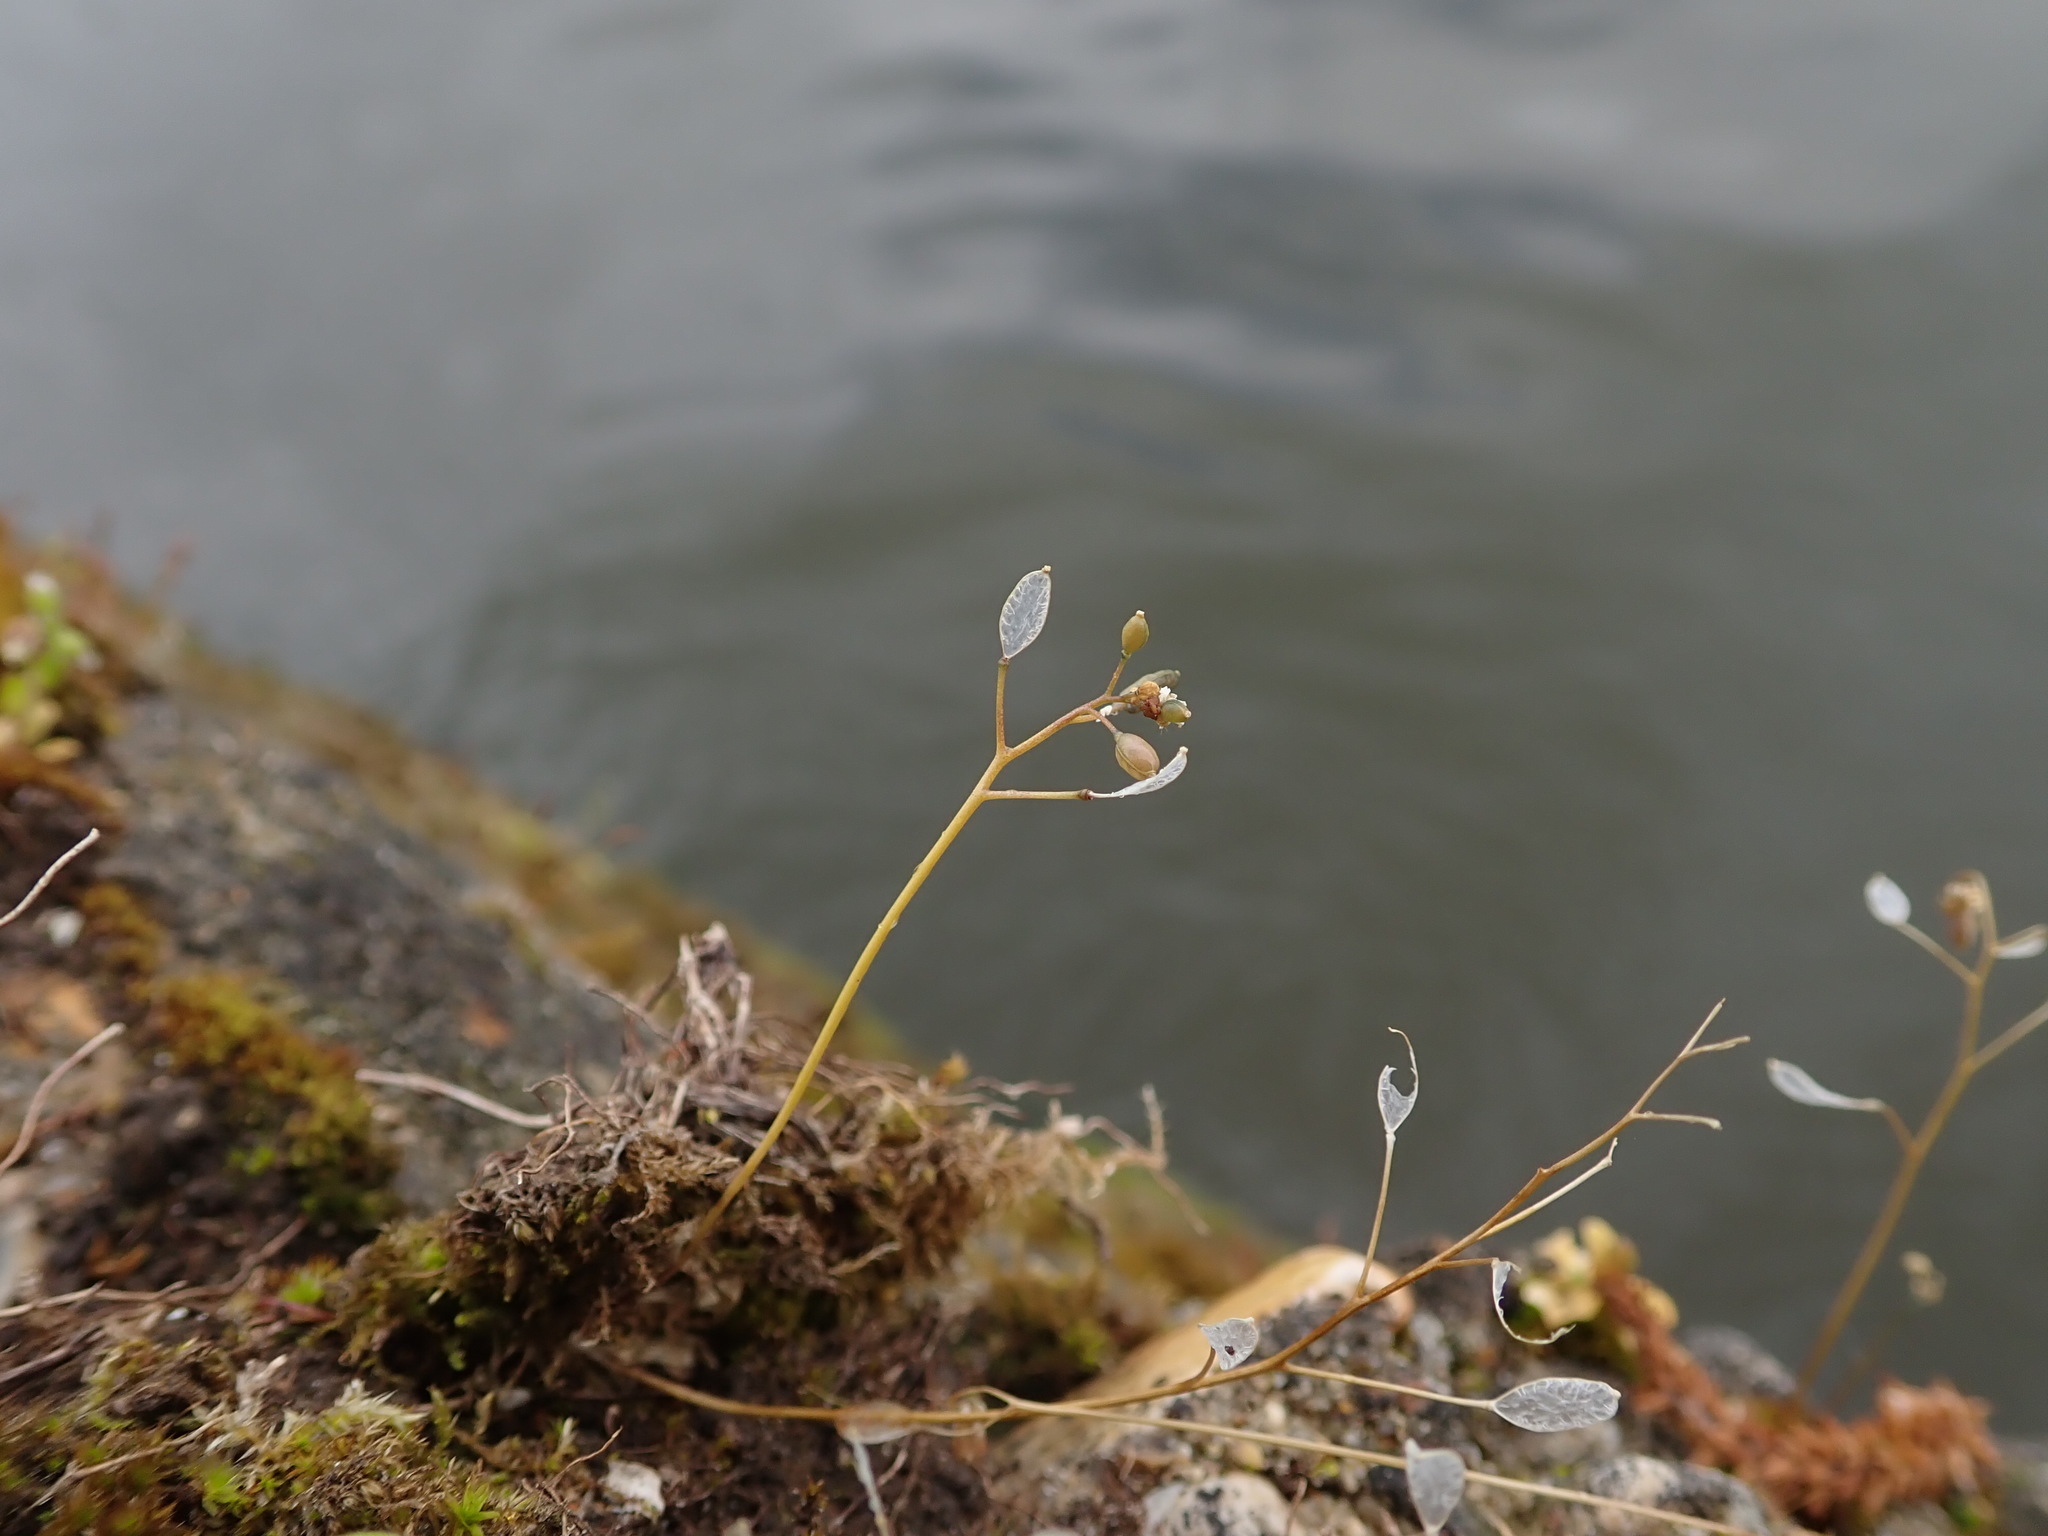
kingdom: Plantae
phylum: Tracheophyta
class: Magnoliopsida
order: Brassicales
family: Brassicaceae
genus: Draba
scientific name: Draba verna
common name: Spring draba
